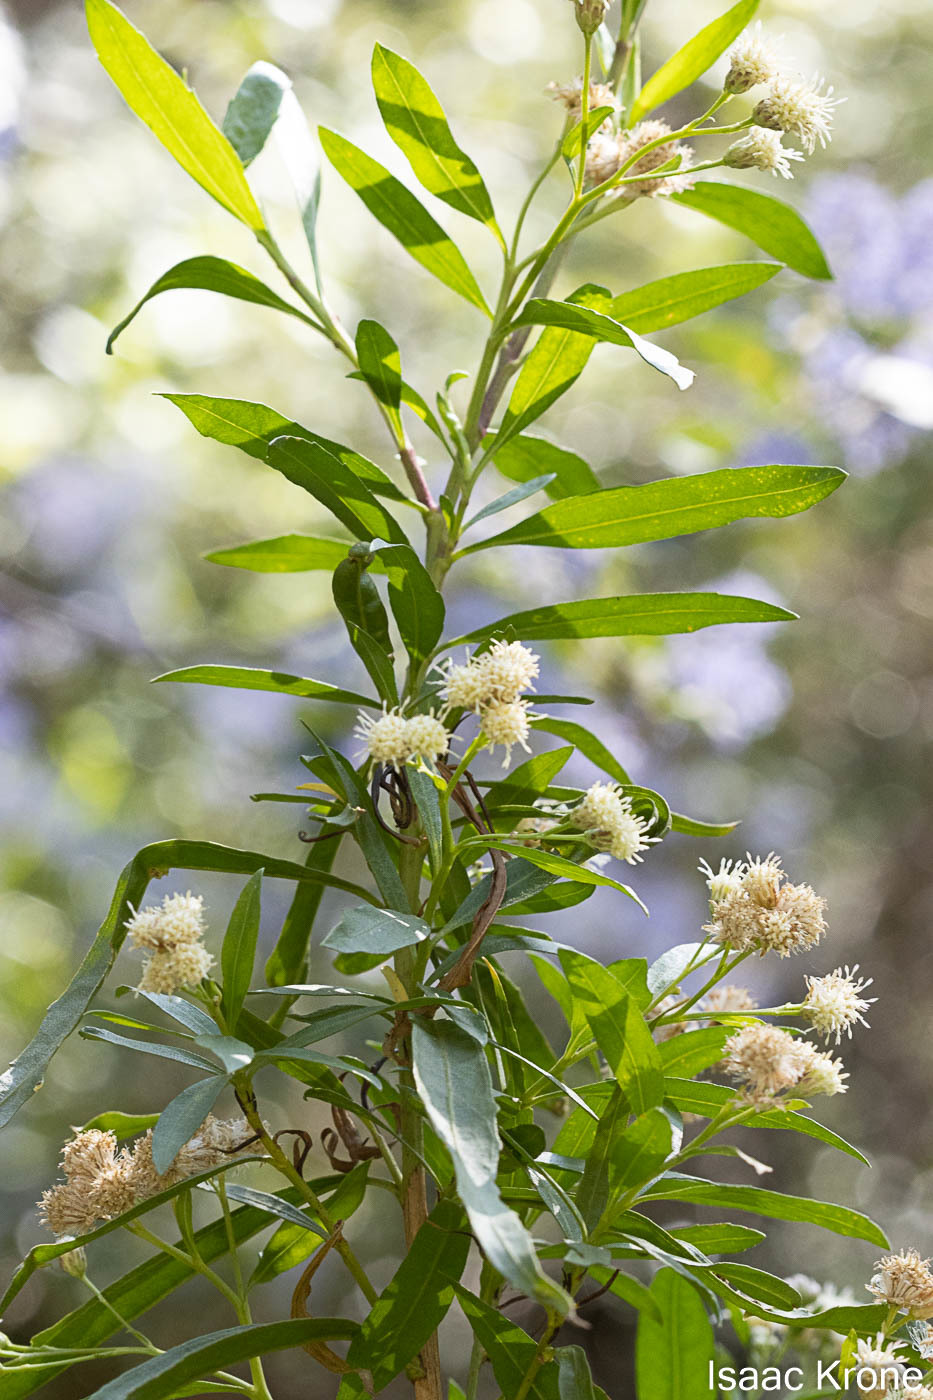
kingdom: Plantae
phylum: Tracheophyta
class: Magnoliopsida
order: Asterales
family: Asteraceae
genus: Baccharis
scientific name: Baccharis salicifolia
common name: Sticky baccharis
